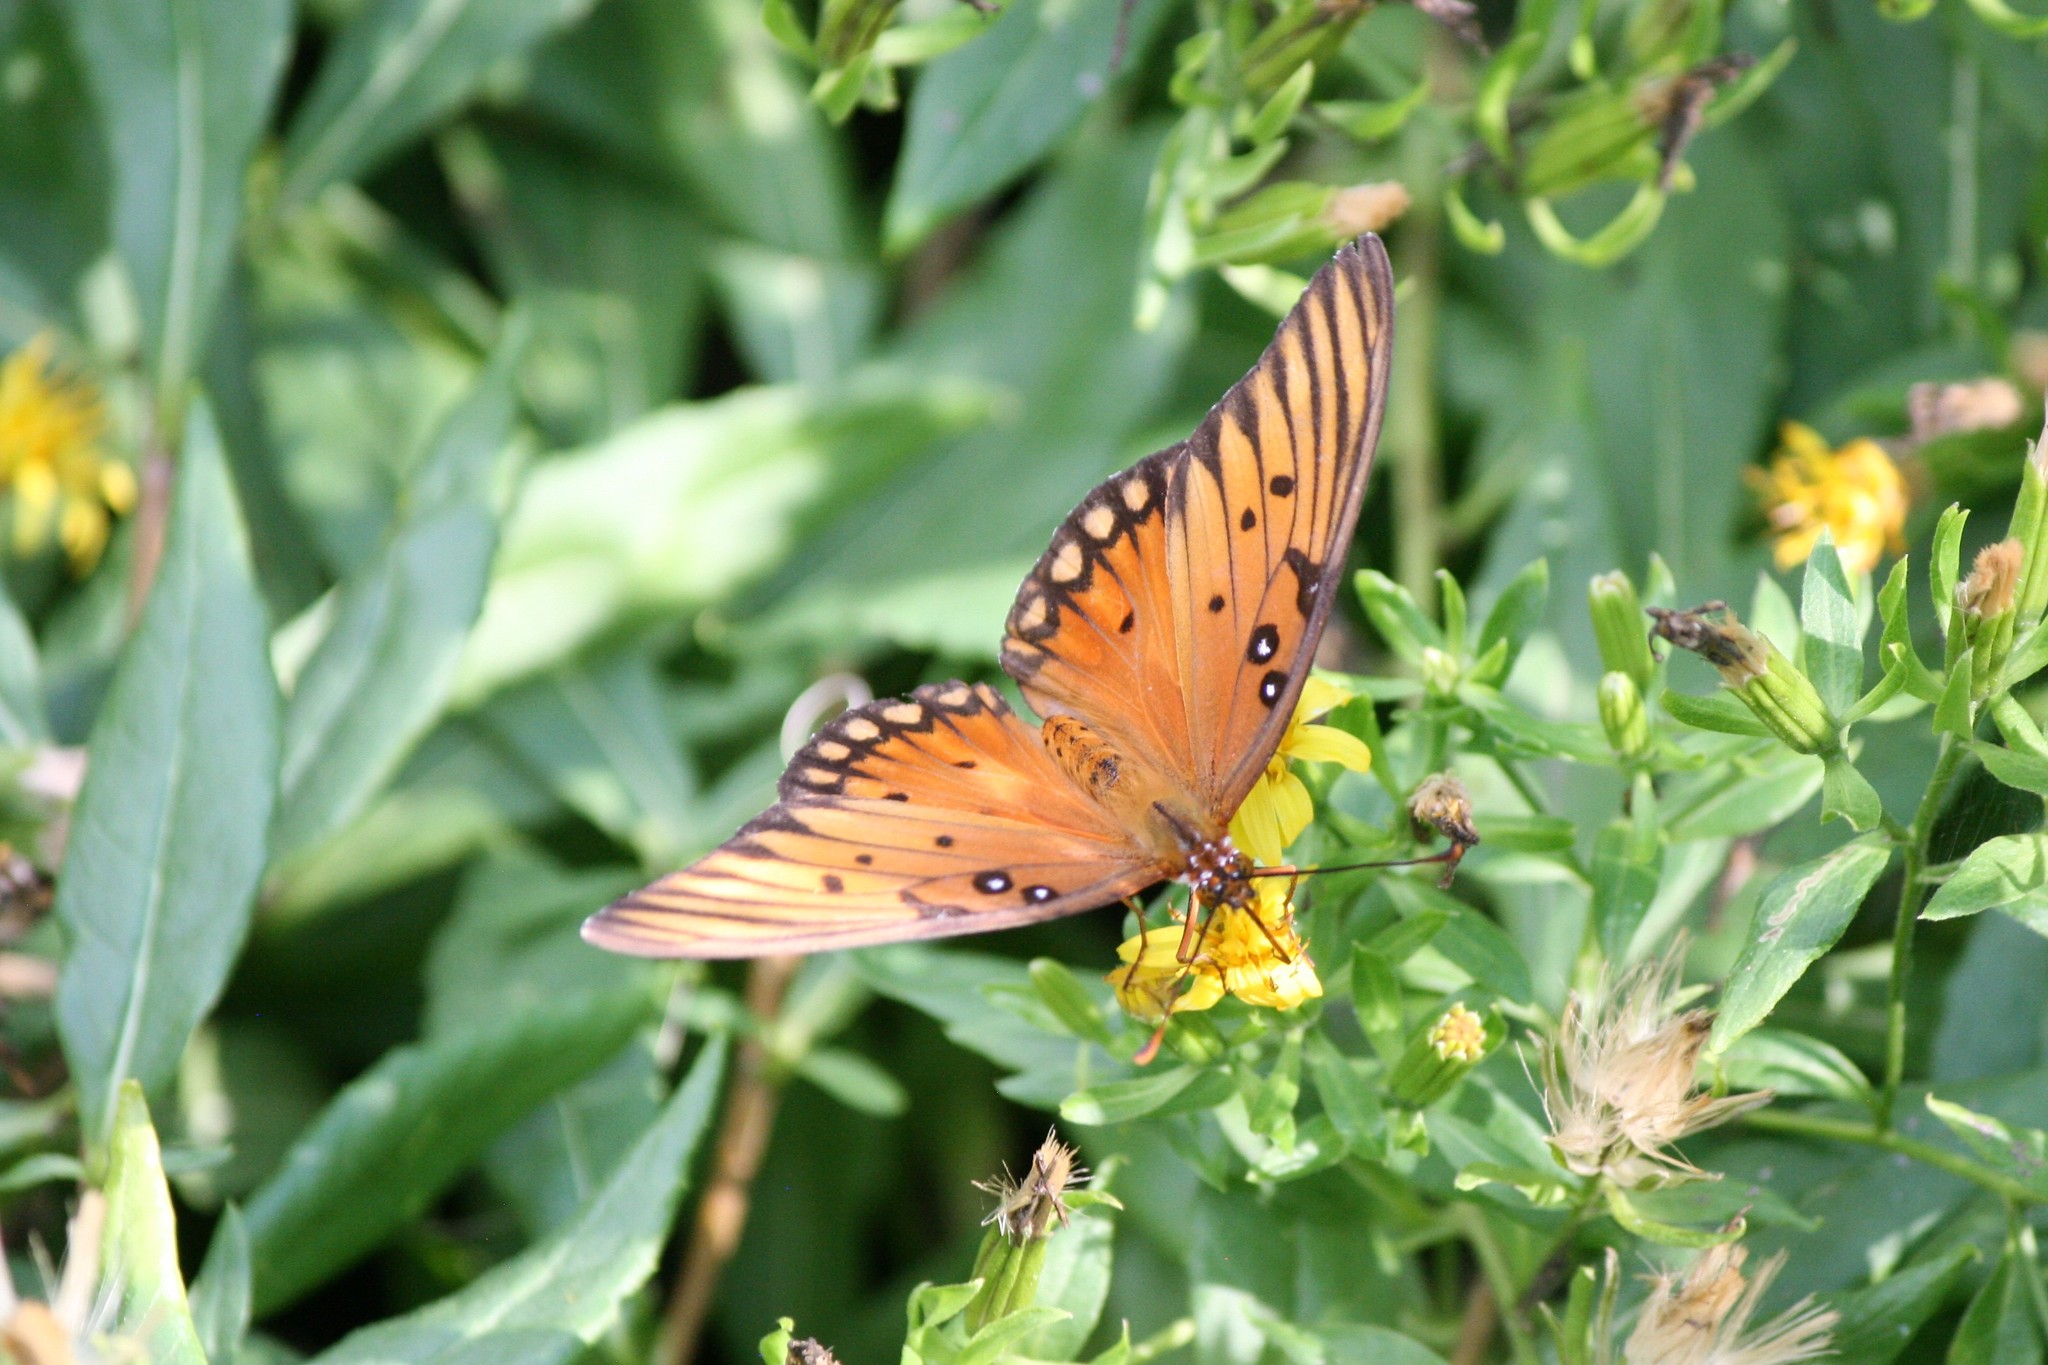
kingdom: Animalia
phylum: Arthropoda
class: Insecta
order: Lepidoptera
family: Nymphalidae
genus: Dione
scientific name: Dione vanillae
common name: Gulf fritillary
